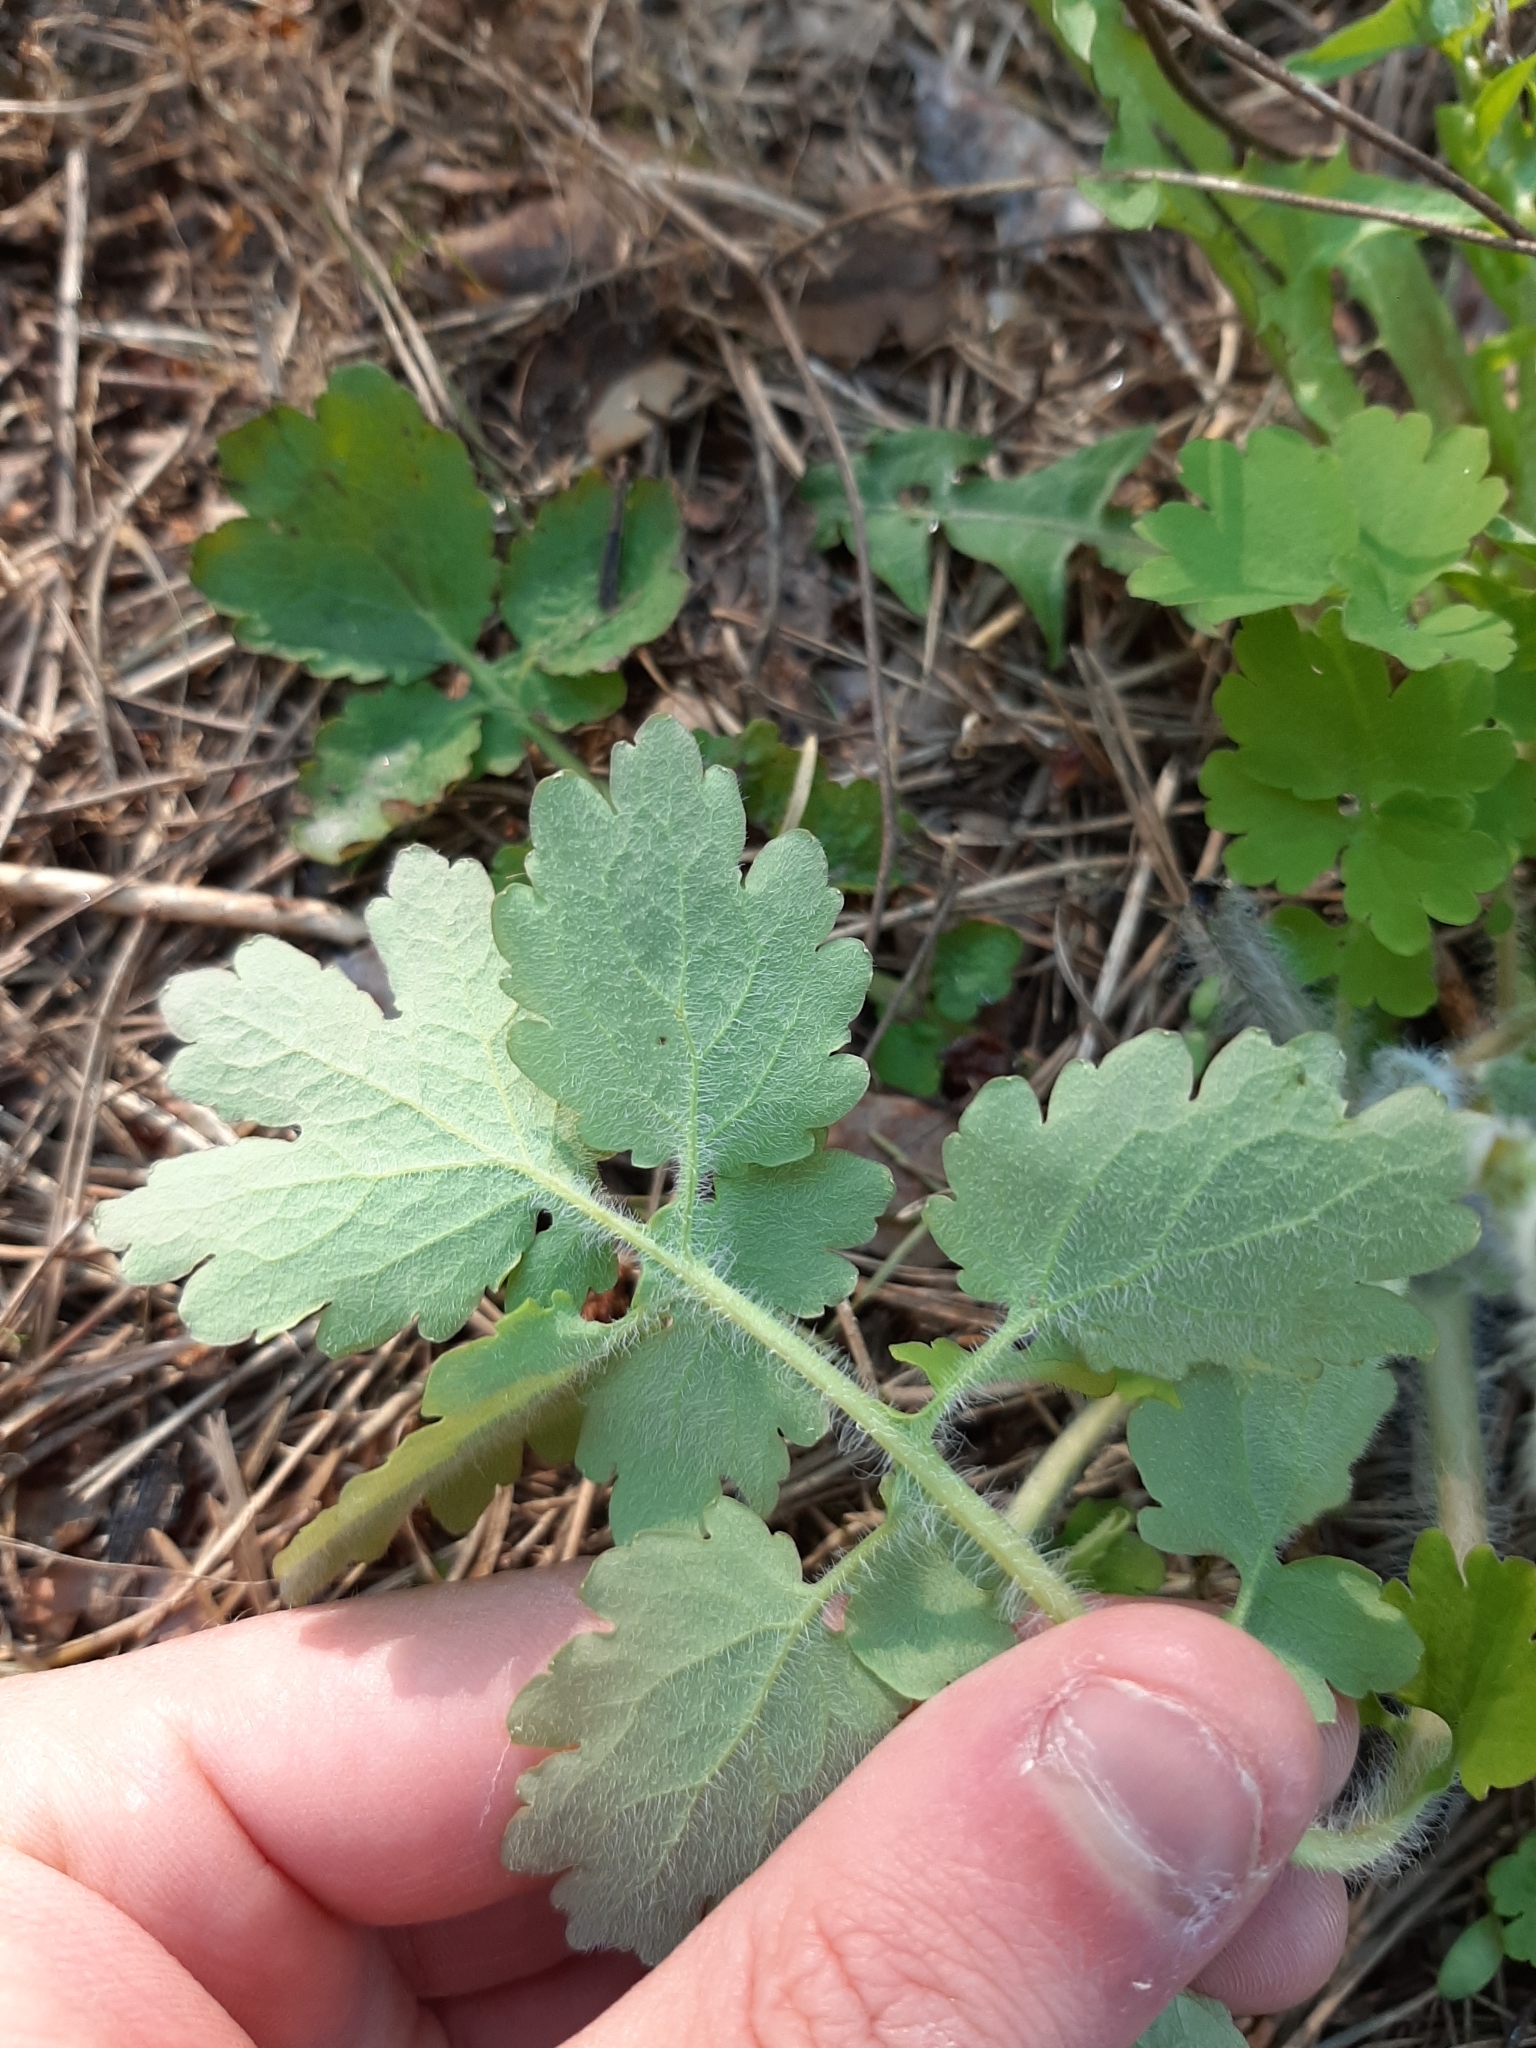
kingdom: Plantae
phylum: Tracheophyta
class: Magnoliopsida
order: Ranunculales
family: Papaveraceae
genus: Chelidonium
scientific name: Chelidonium majus
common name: Greater celandine
